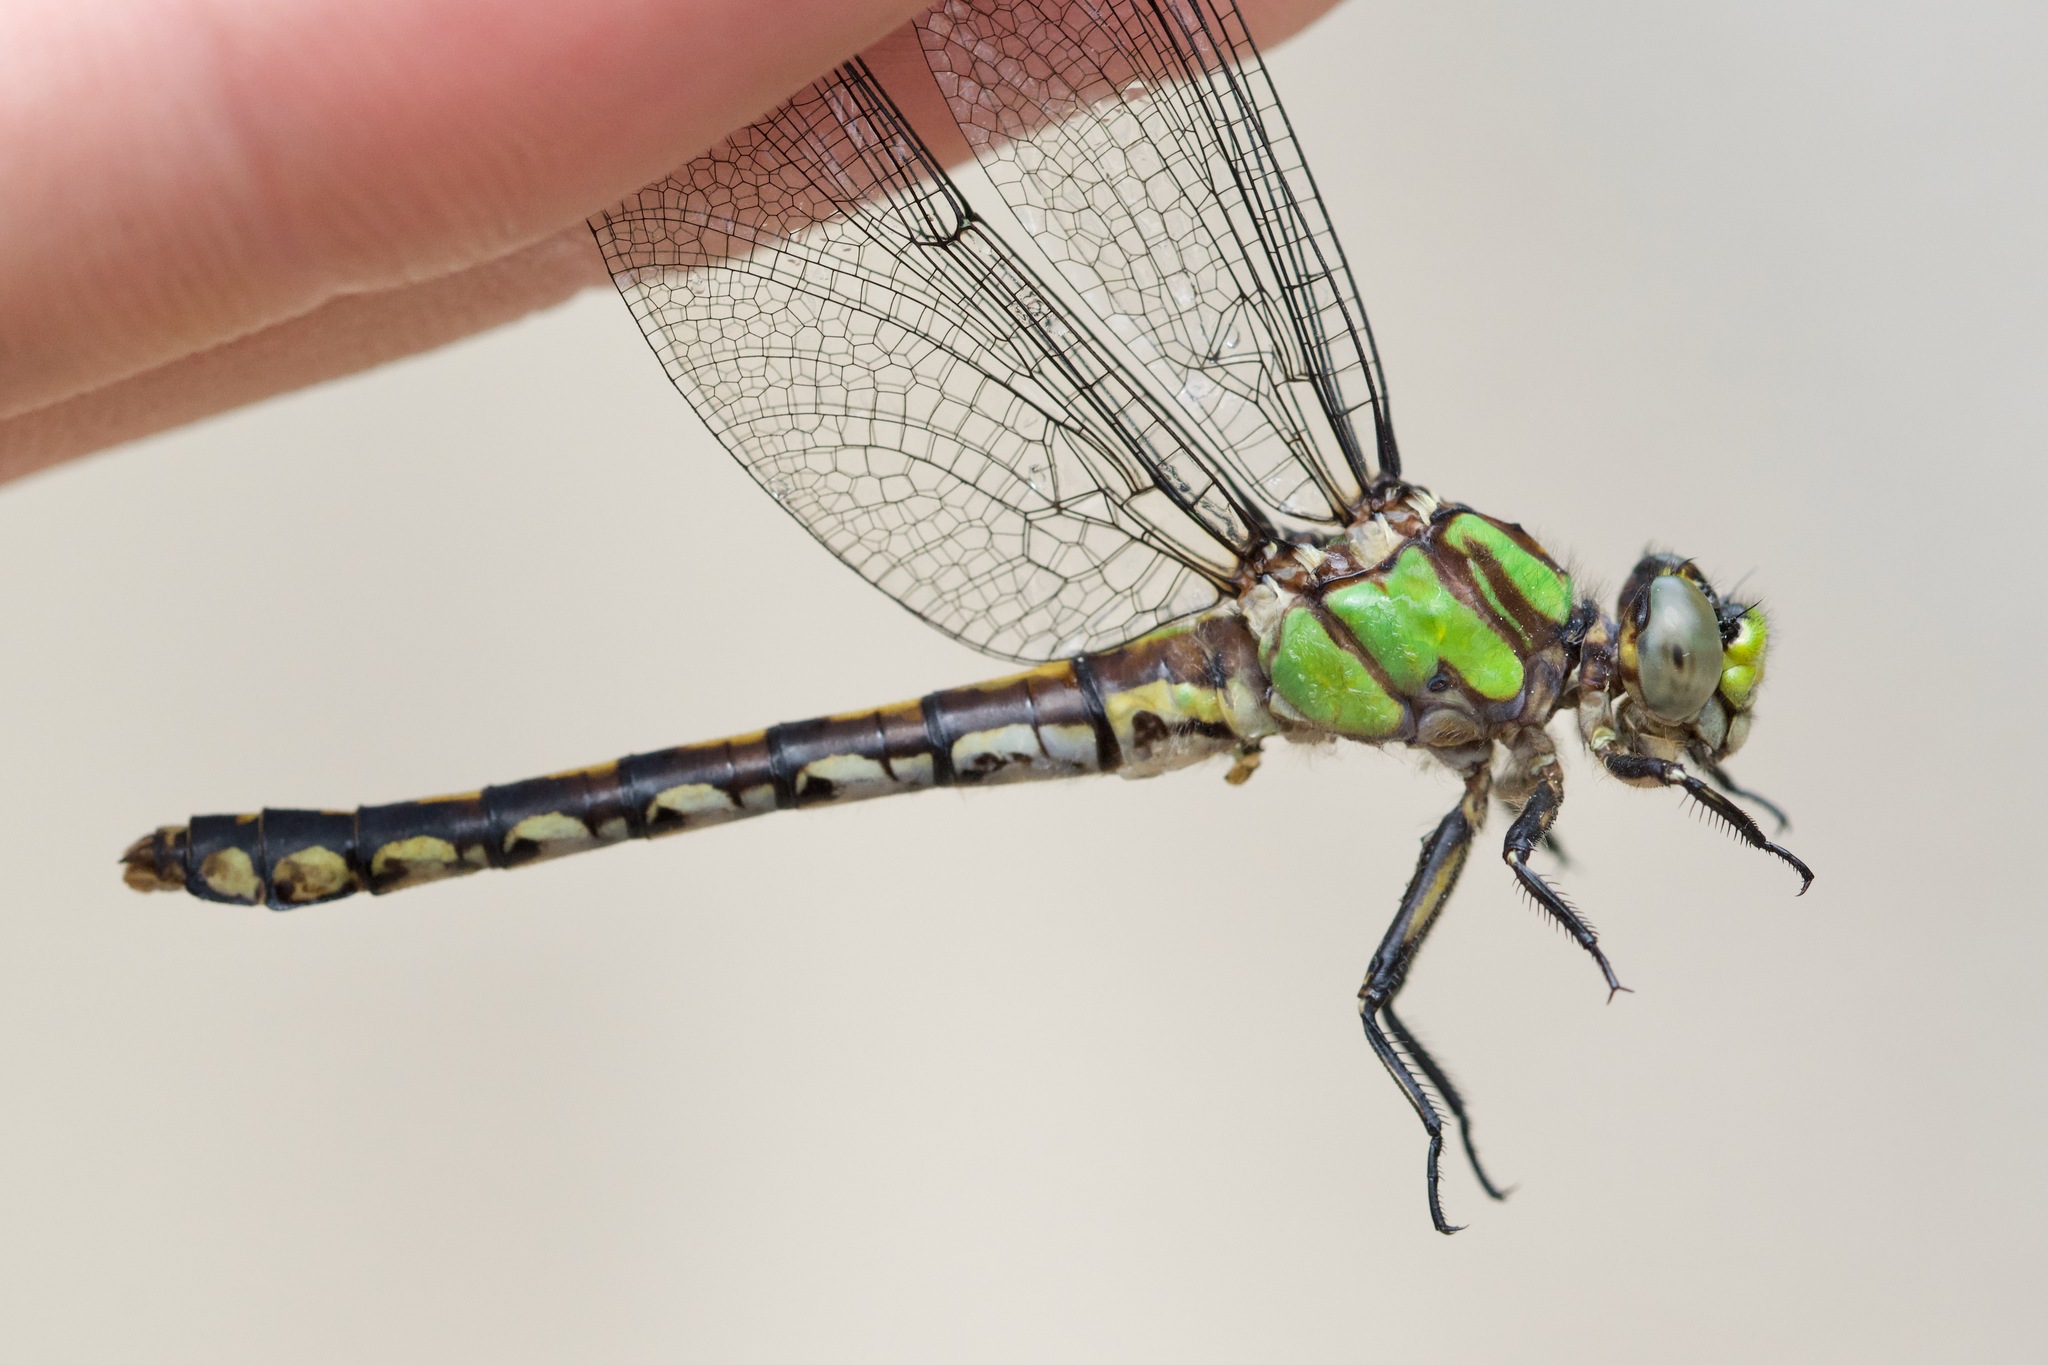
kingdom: Animalia
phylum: Arthropoda
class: Insecta
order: Odonata
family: Gomphidae
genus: Ophiogomphus
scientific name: Ophiogomphus carolus
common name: Riffle snaketail
